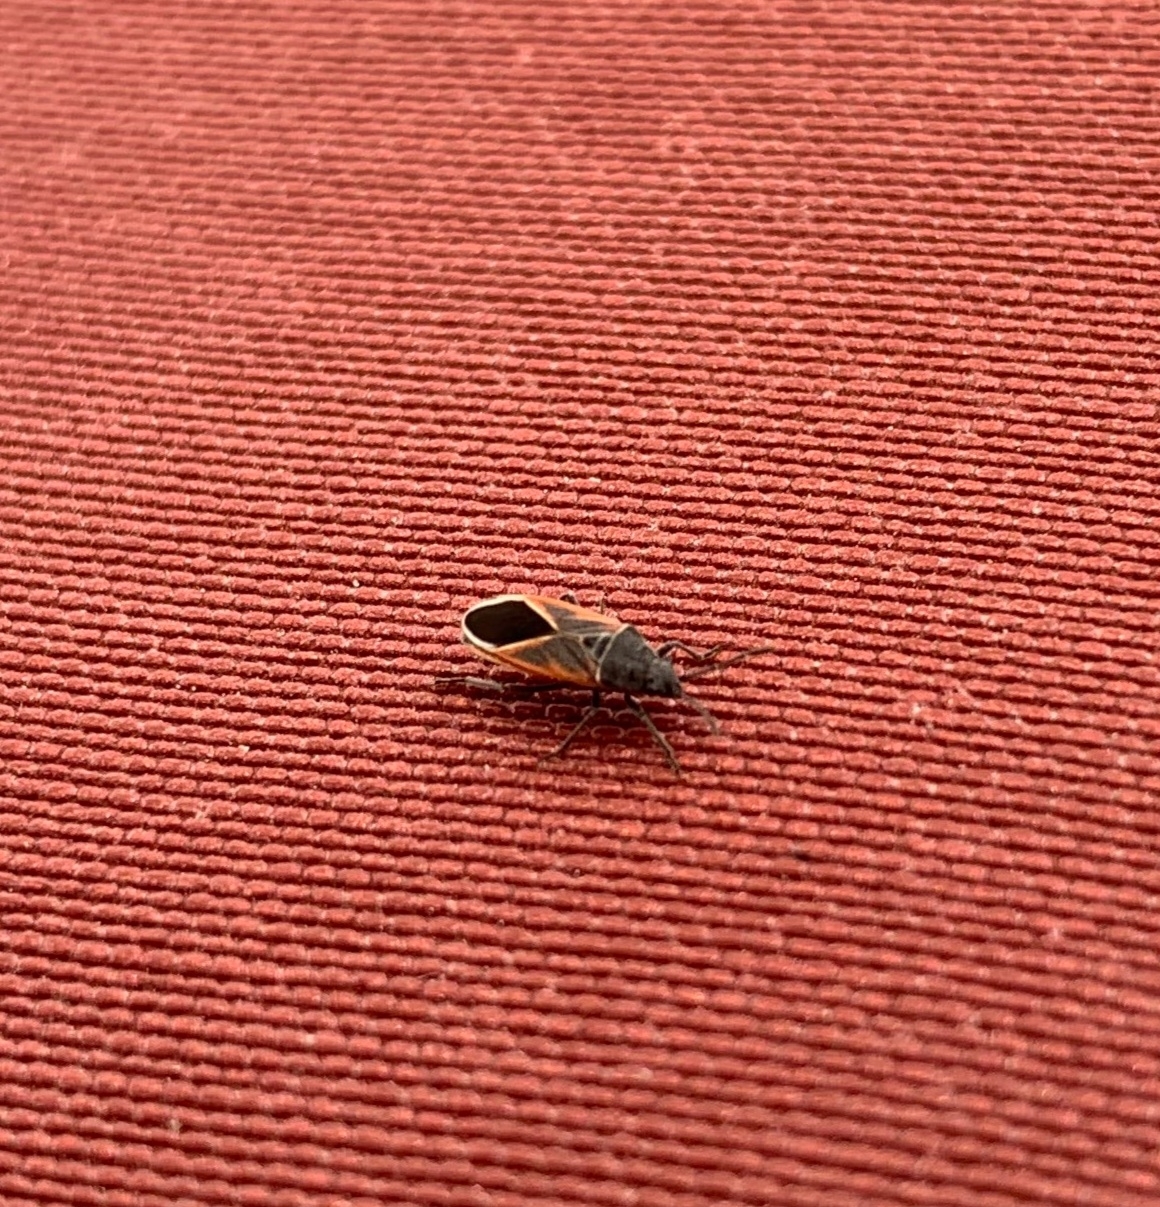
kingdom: Animalia
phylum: Arthropoda
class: Insecta
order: Hemiptera
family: Lygaeidae
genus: Melanopleurus
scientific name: Melanopleurus pyrrhopterus
